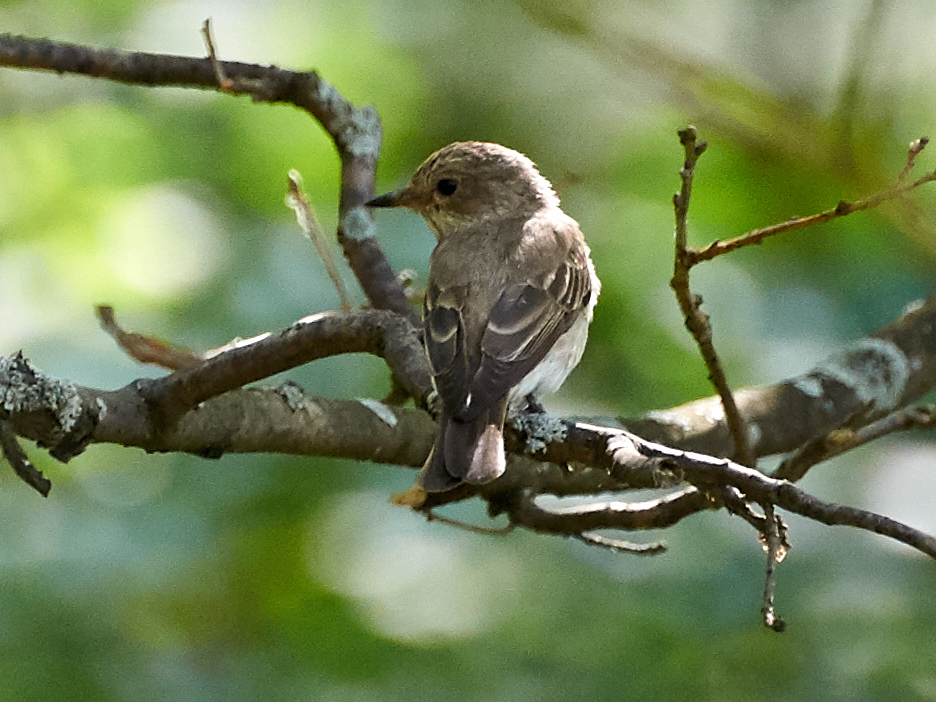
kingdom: Animalia
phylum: Chordata
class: Aves
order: Passeriformes
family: Muscicapidae
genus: Muscicapa
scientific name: Muscicapa striata
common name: Spotted flycatcher
